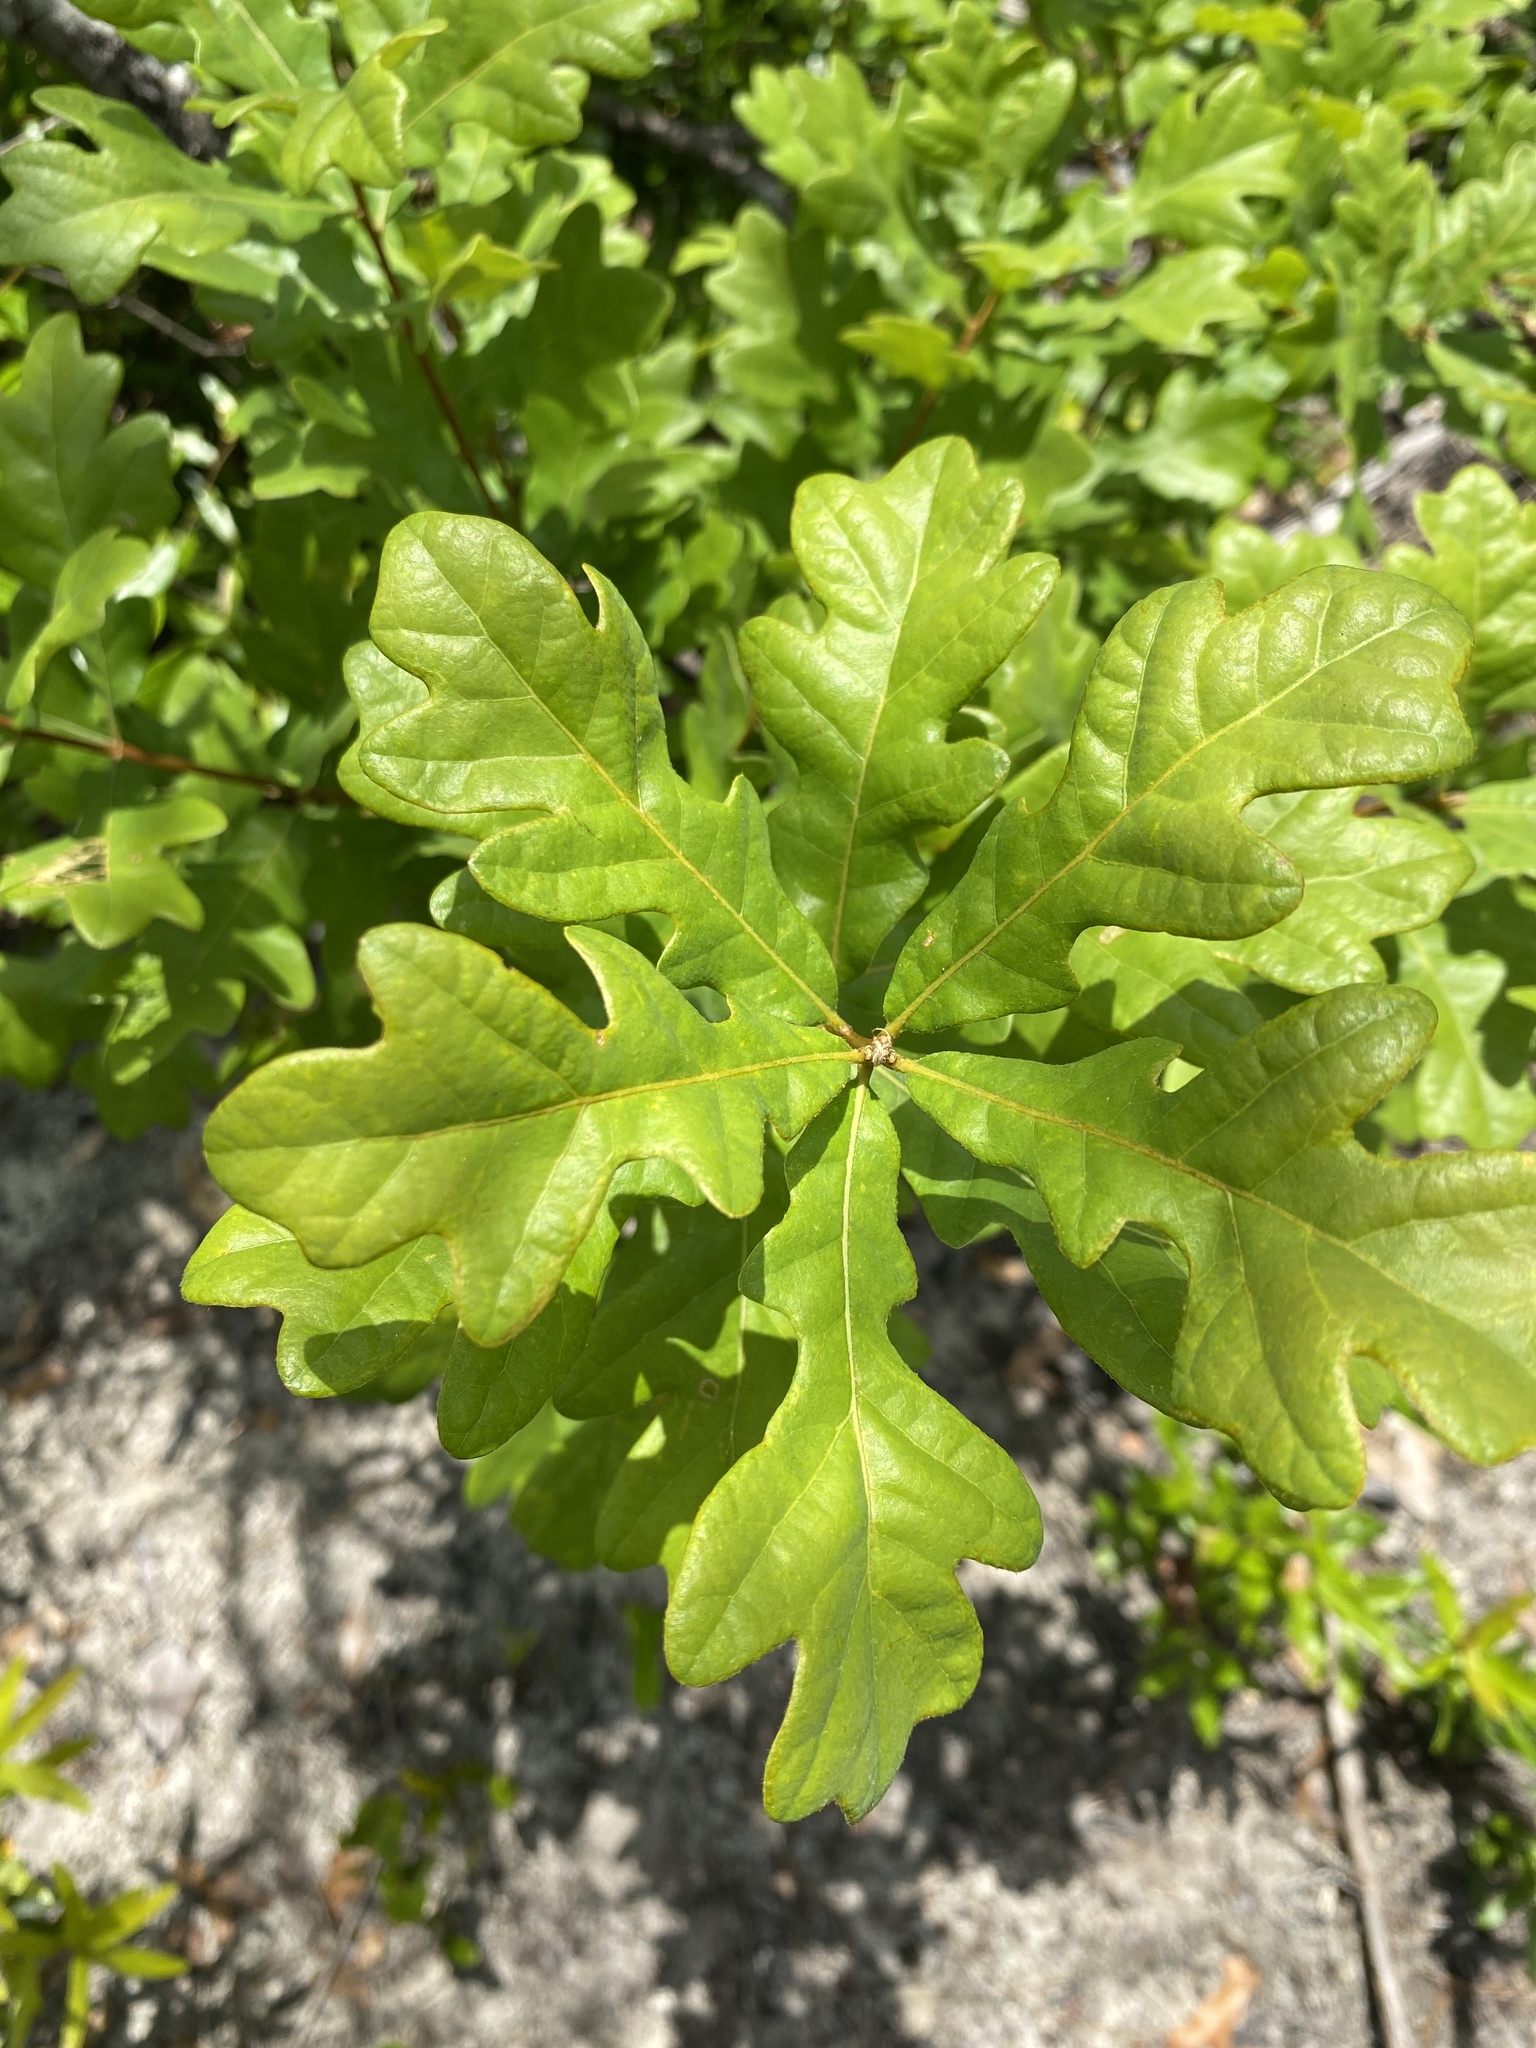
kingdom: Plantae
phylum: Tracheophyta
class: Magnoliopsida
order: Fagales
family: Fagaceae
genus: Quercus
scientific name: Quercus margaretiae
